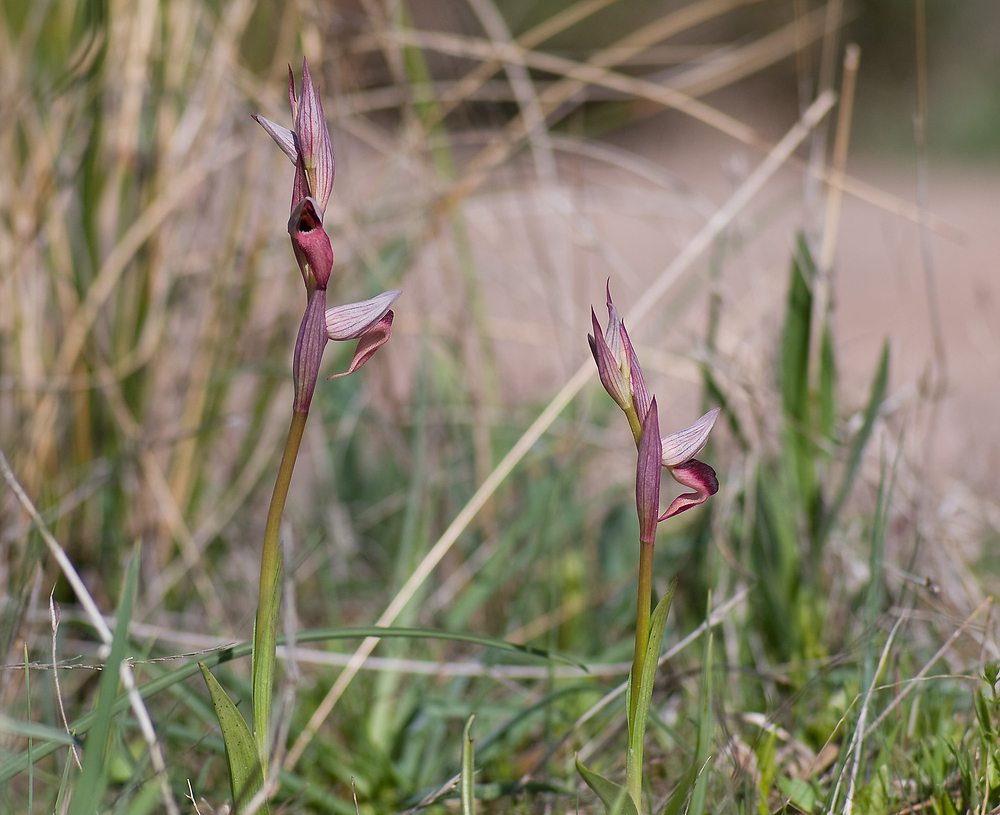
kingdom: Plantae
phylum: Tracheophyta
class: Liliopsida
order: Asparagales
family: Orchidaceae
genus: Serapias
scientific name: Serapias olbia
